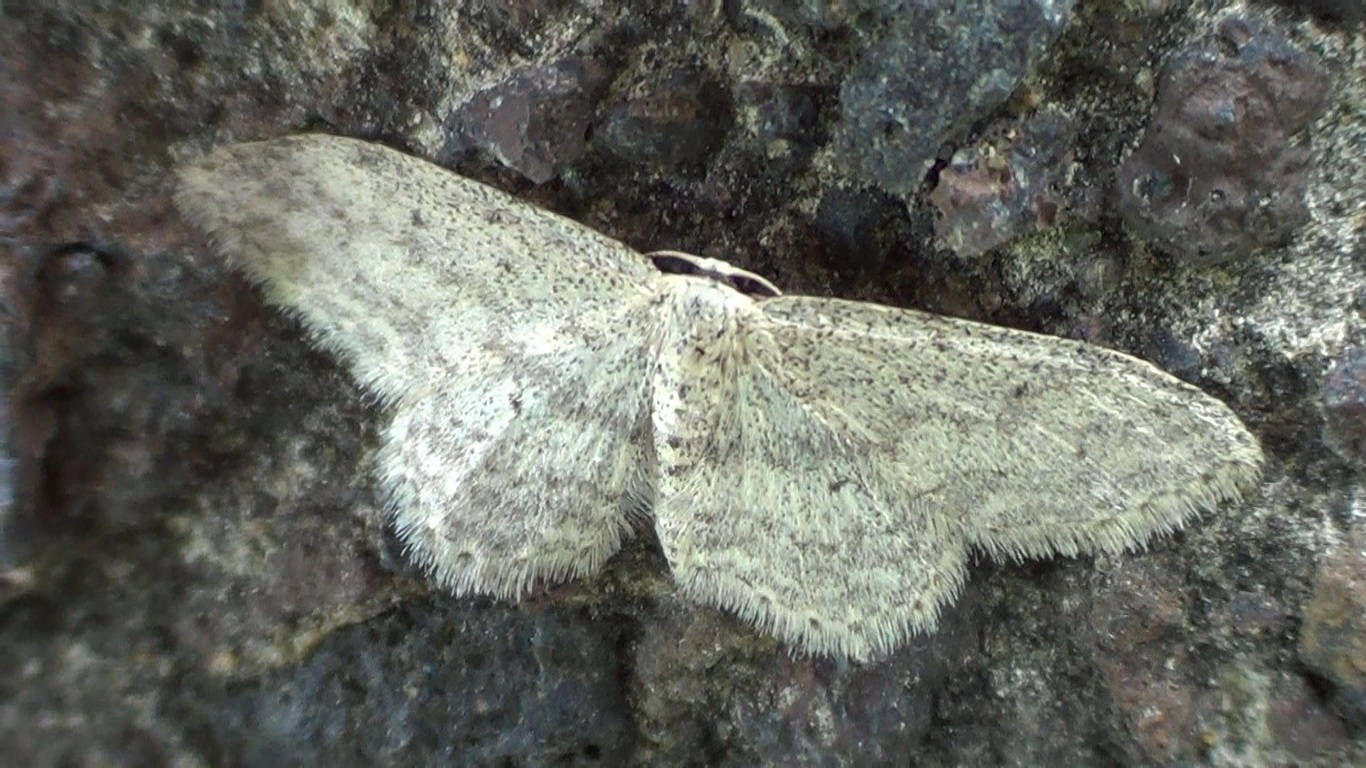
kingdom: Animalia
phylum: Arthropoda
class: Insecta
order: Lepidoptera
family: Geometridae
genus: Idaea
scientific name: Idaea seriata
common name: Small dusty wave
